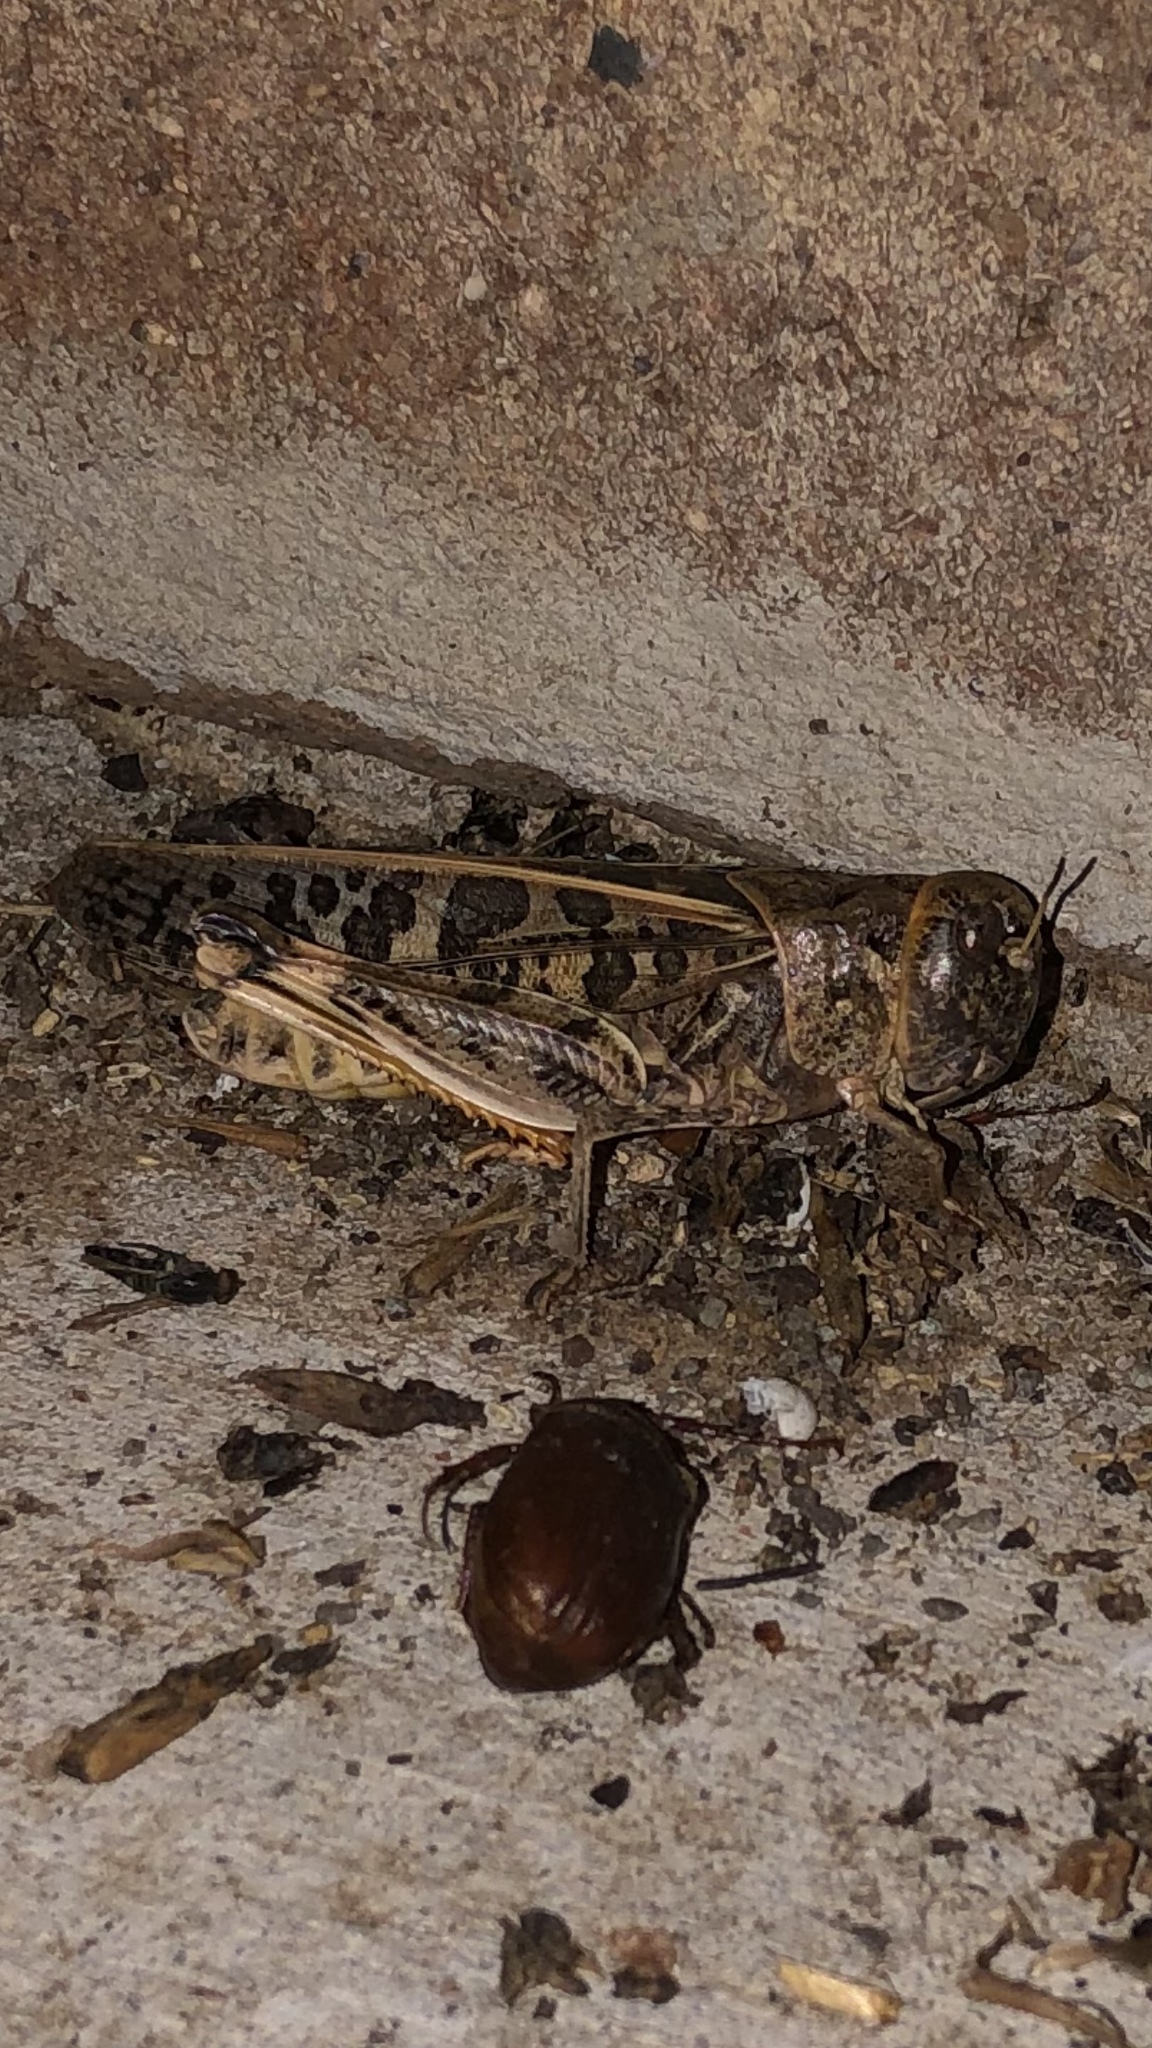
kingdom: Animalia
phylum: Arthropoda
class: Insecta
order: Orthoptera
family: Acrididae
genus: Hippiscus
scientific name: Hippiscus ocelote
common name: Wrinkled grasshopper
